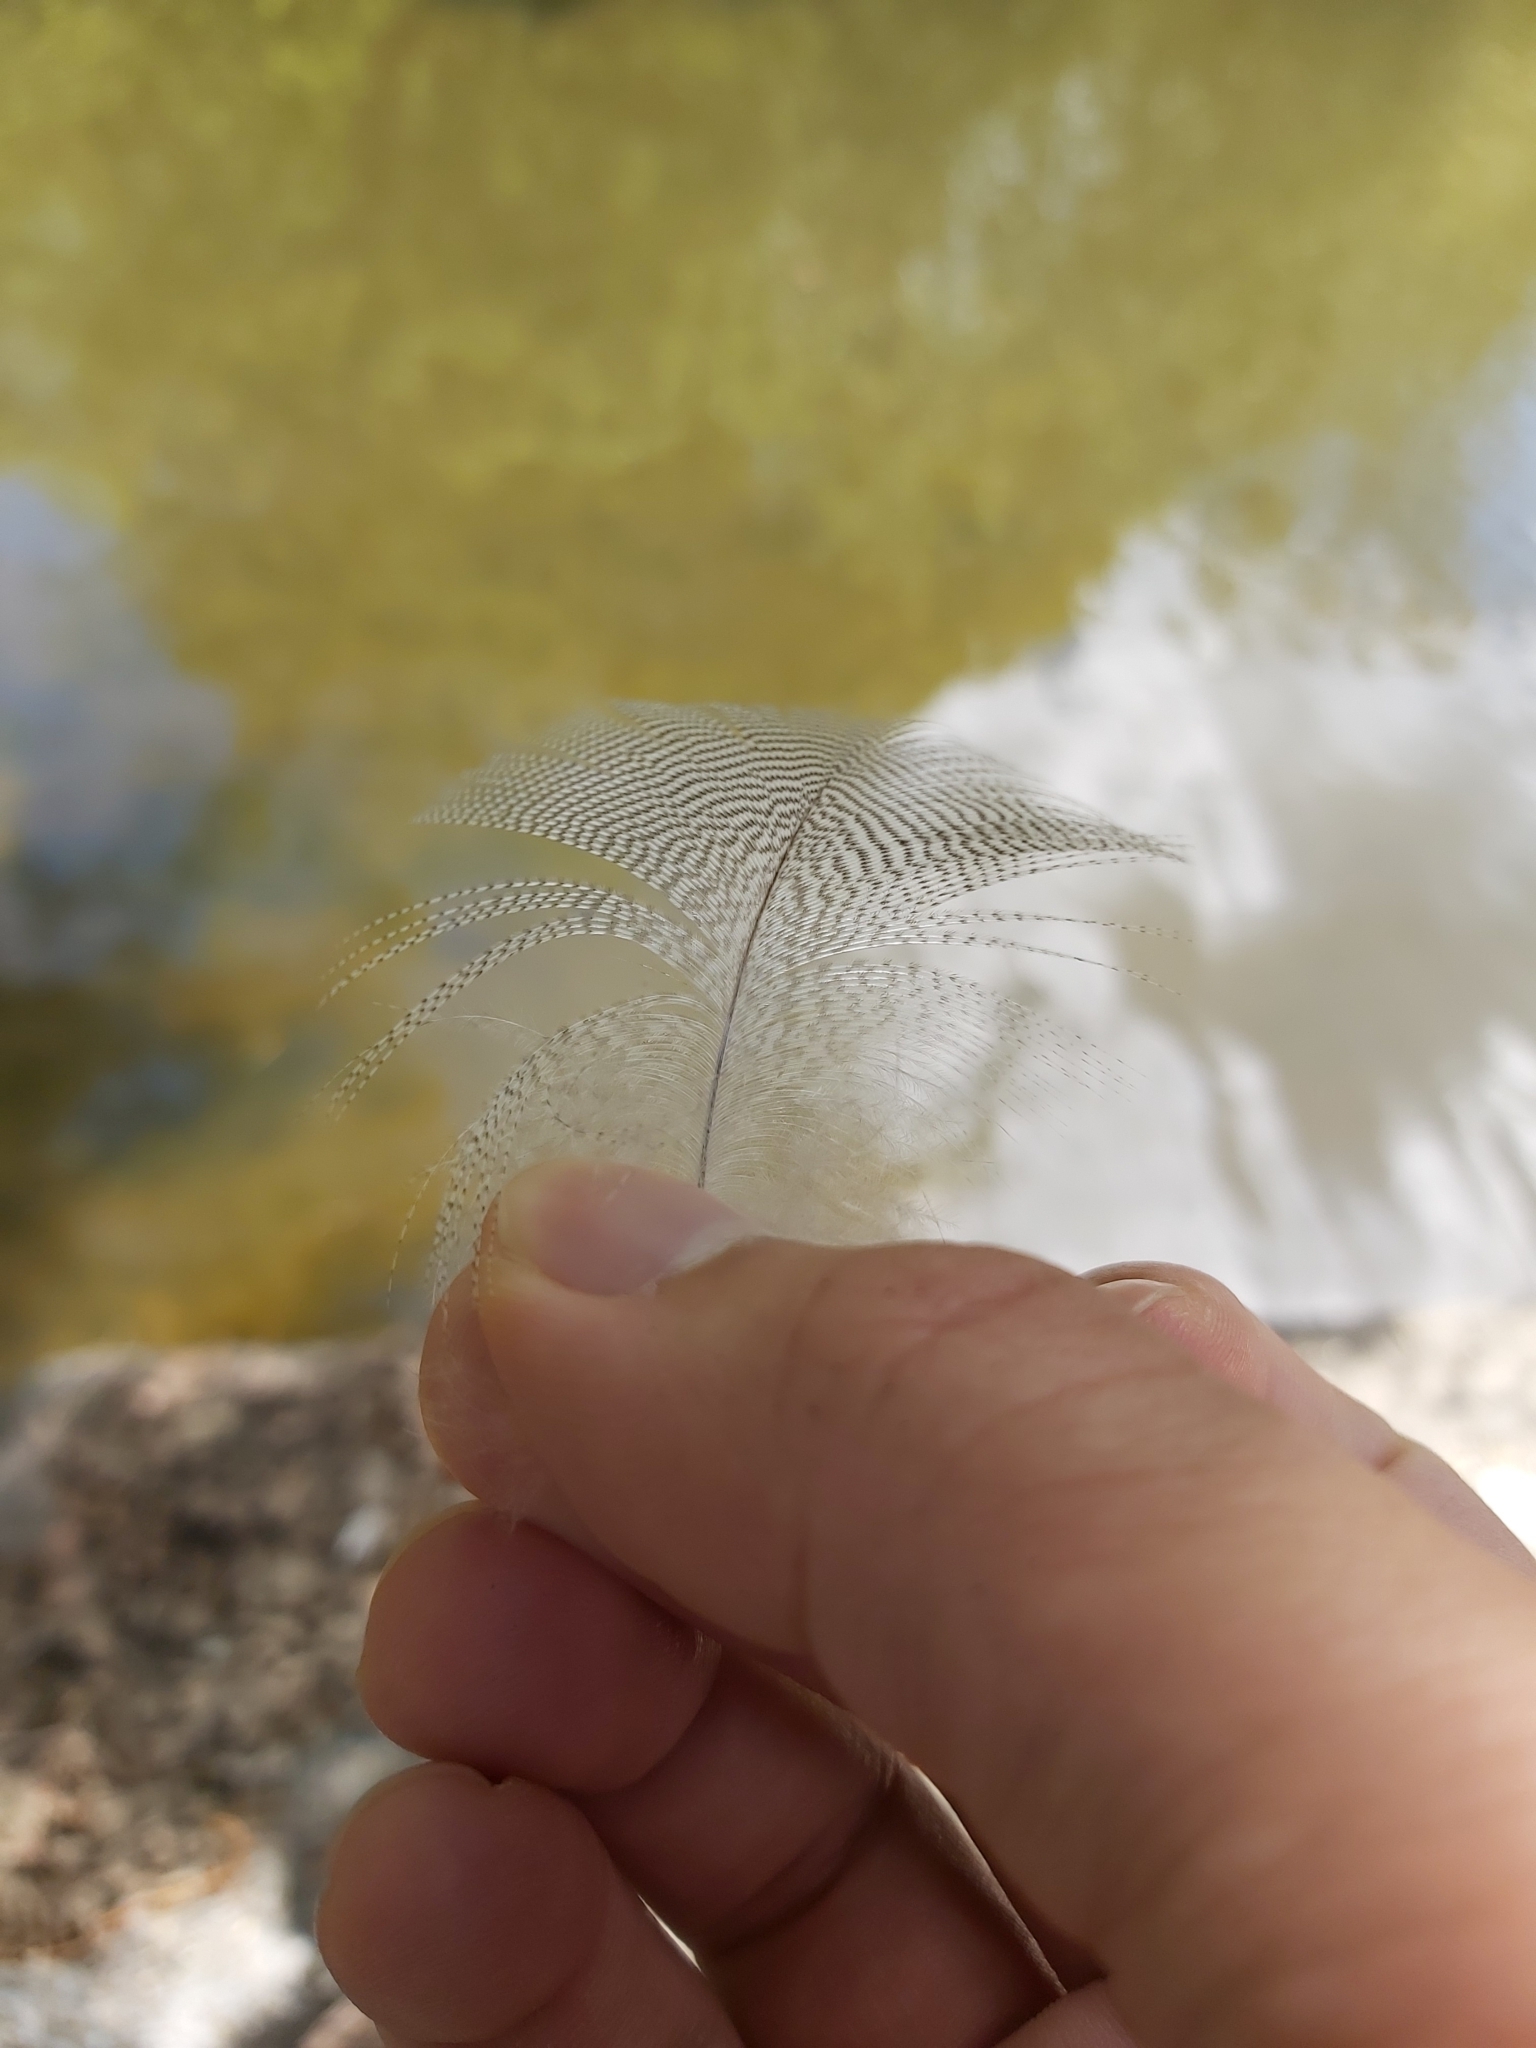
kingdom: Animalia
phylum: Chordata
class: Aves
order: Anseriformes
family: Anatidae
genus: Chenonetta
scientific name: Chenonetta jubata
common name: Maned duck
